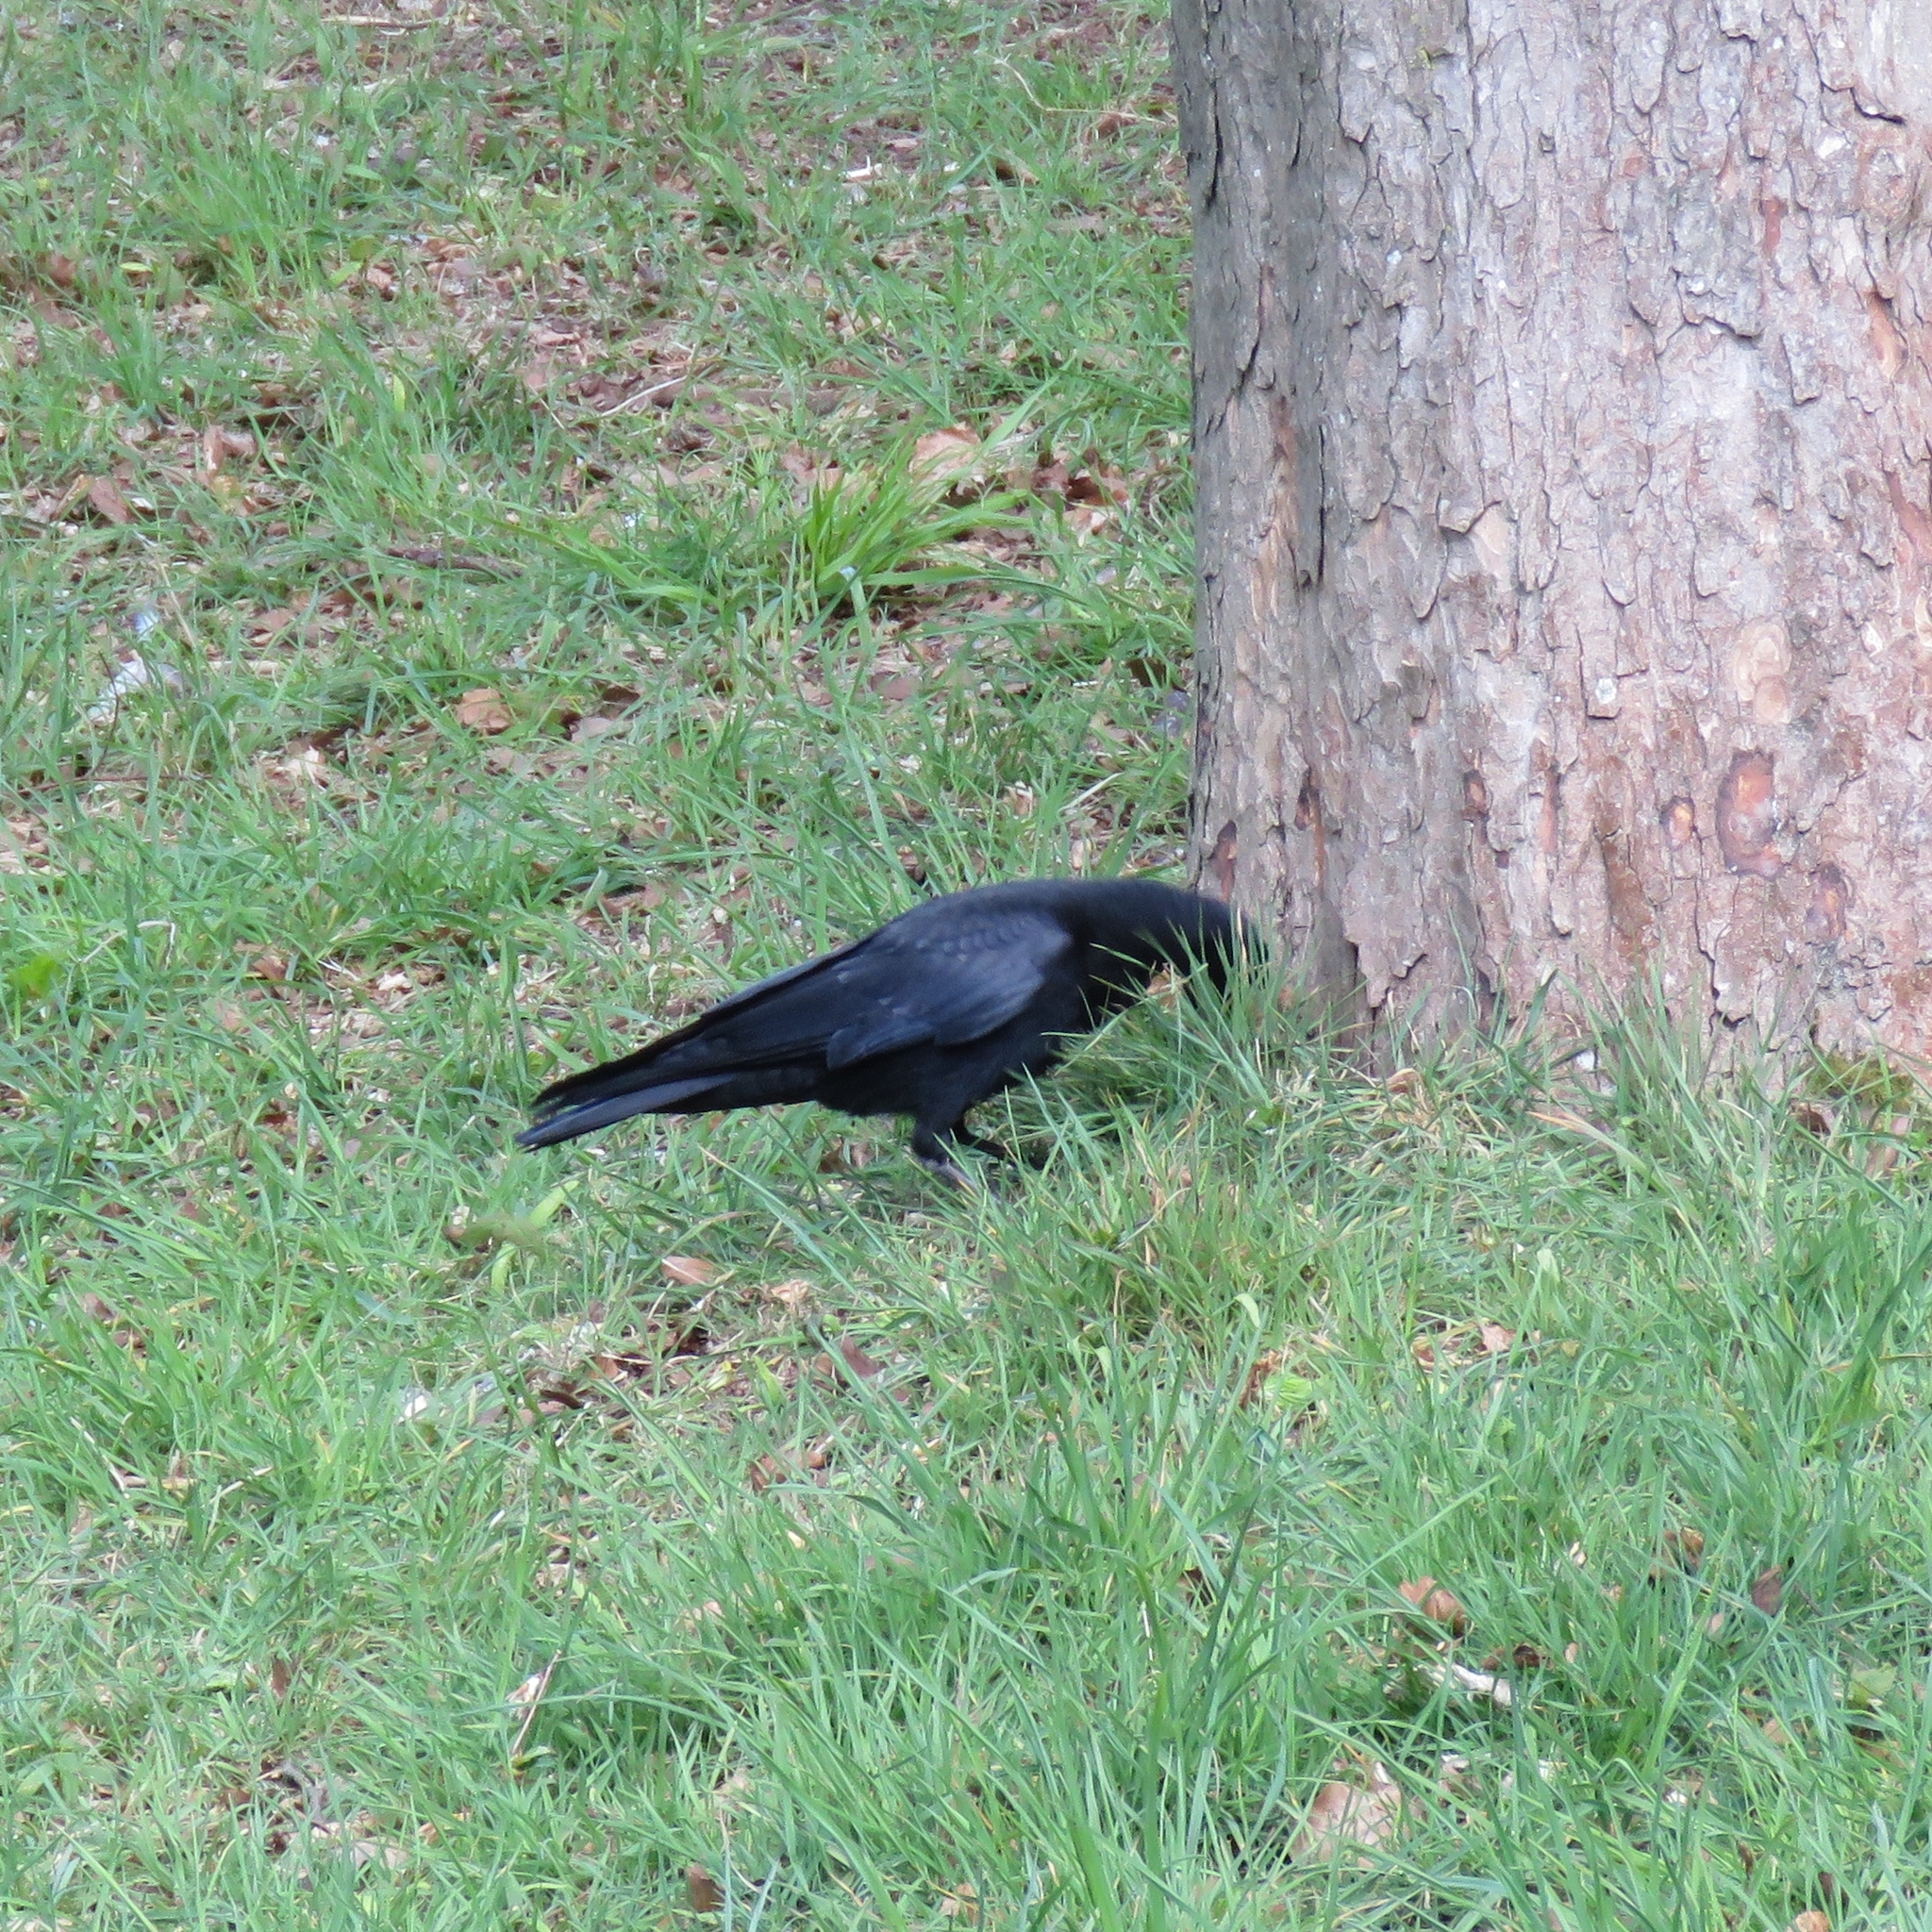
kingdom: Animalia
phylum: Chordata
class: Aves
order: Passeriformes
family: Corvidae
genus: Corvus
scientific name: Corvus corone
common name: Carrion crow
